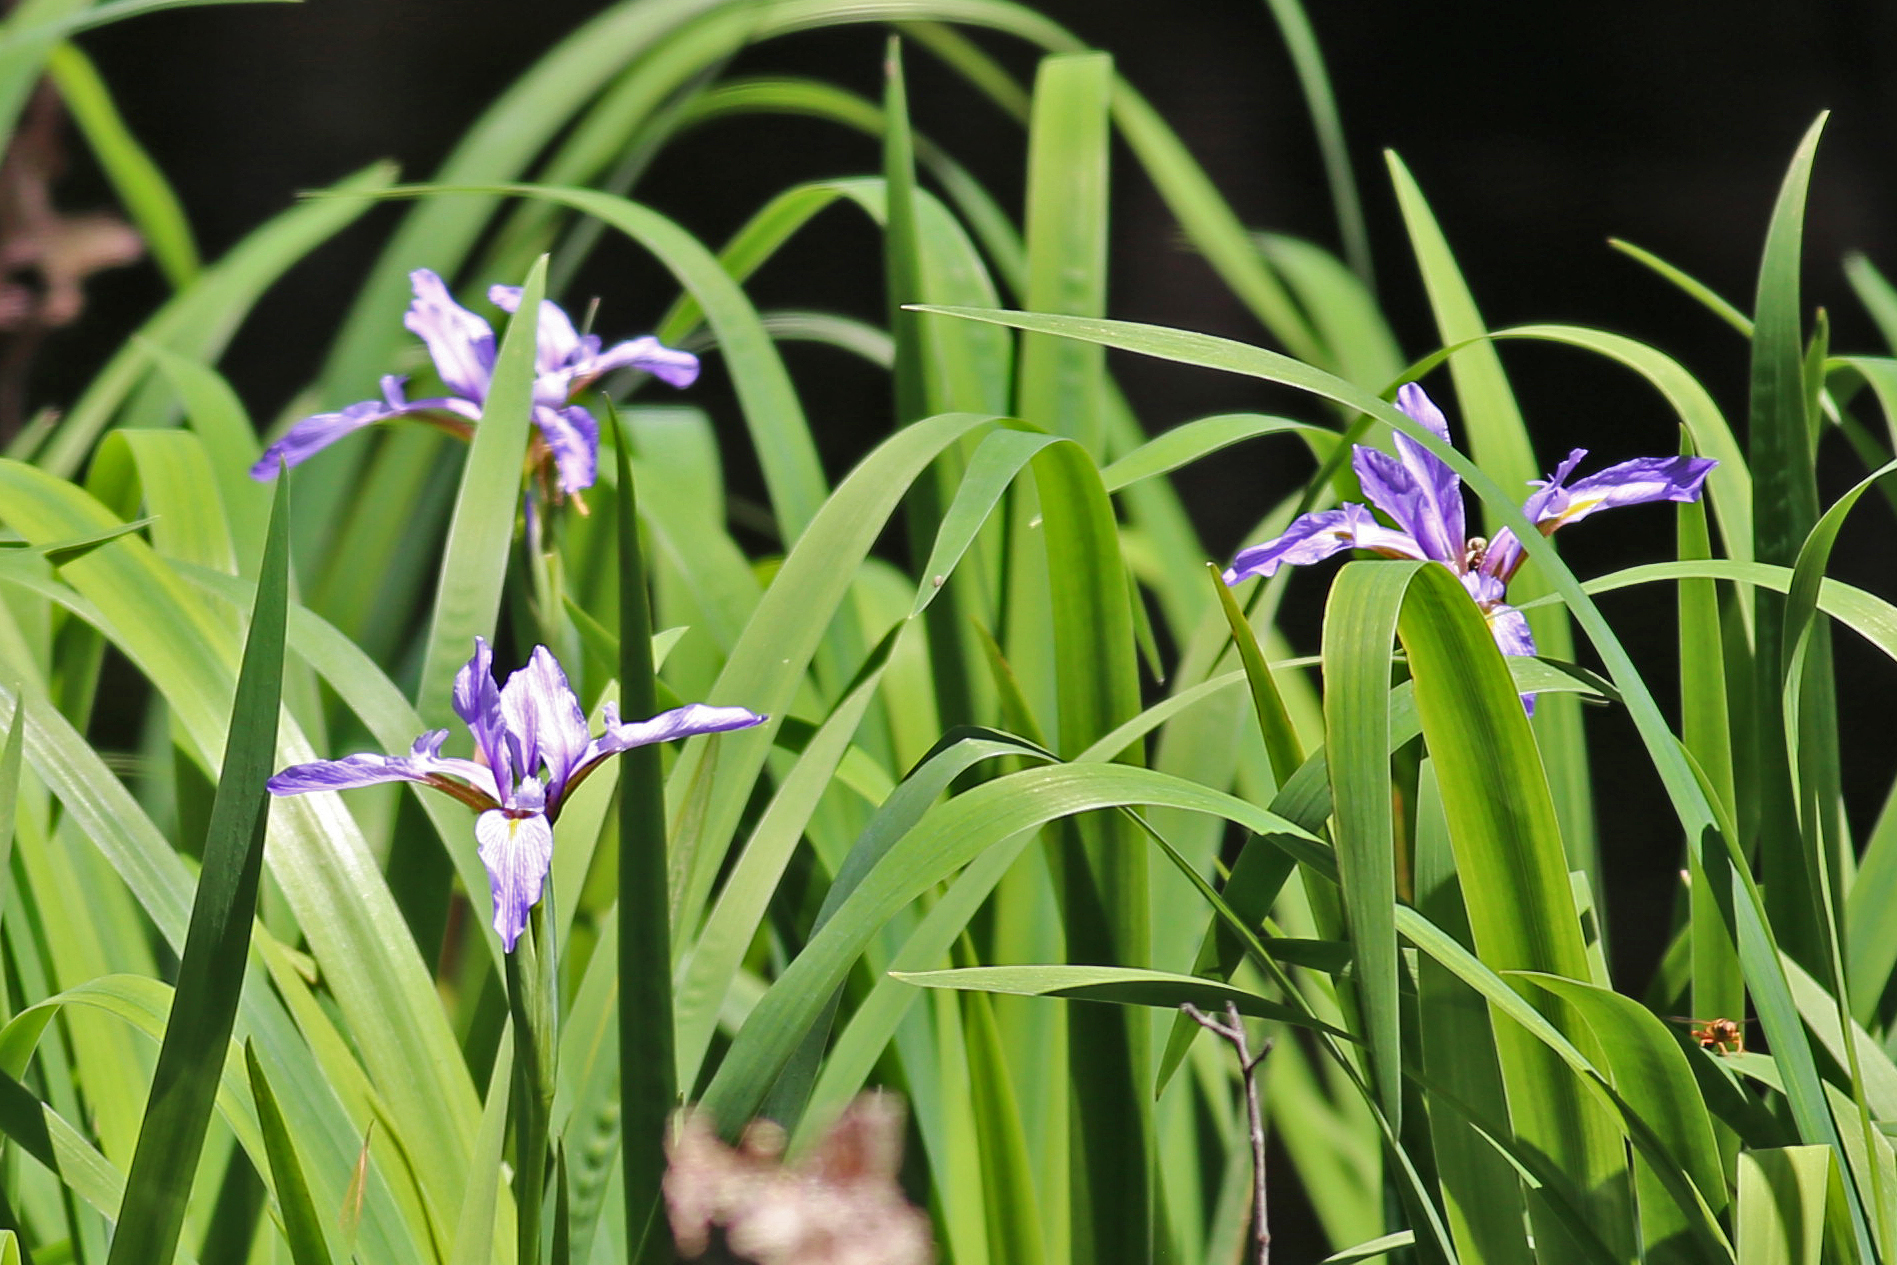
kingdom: Plantae
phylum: Tracheophyta
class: Liliopsida
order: Asparagales
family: Iridaceae
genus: Iris
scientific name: Iris virginica
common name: Southern blue flag
